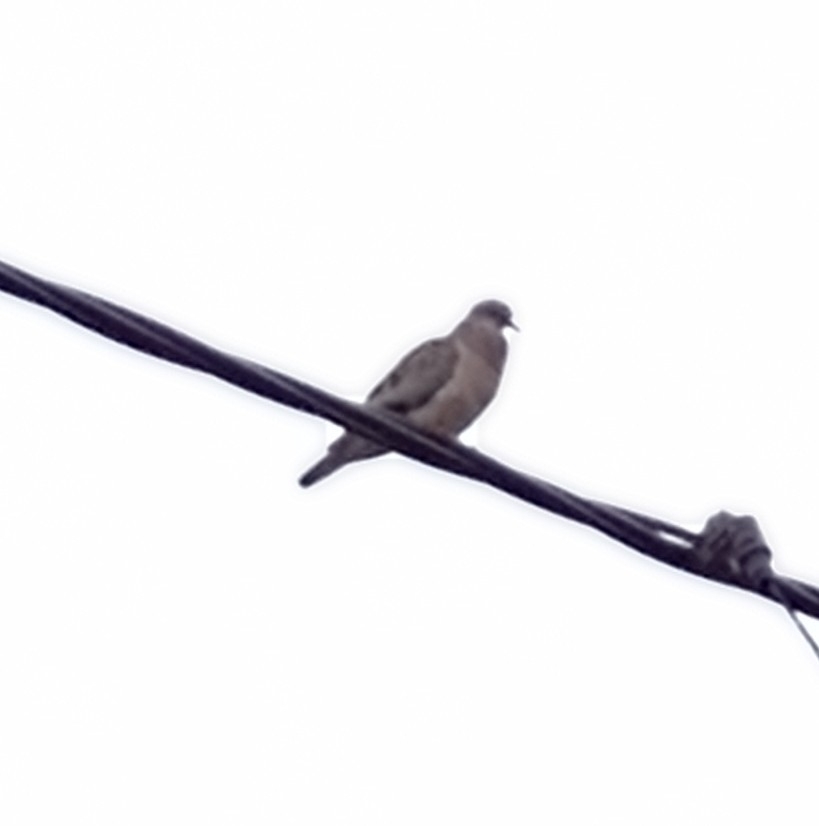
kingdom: Animalia
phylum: Chordata
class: Aves
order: Columbiformes
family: Columbidae
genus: Zenaida
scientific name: Zenaida auriculata
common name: Eared dove
